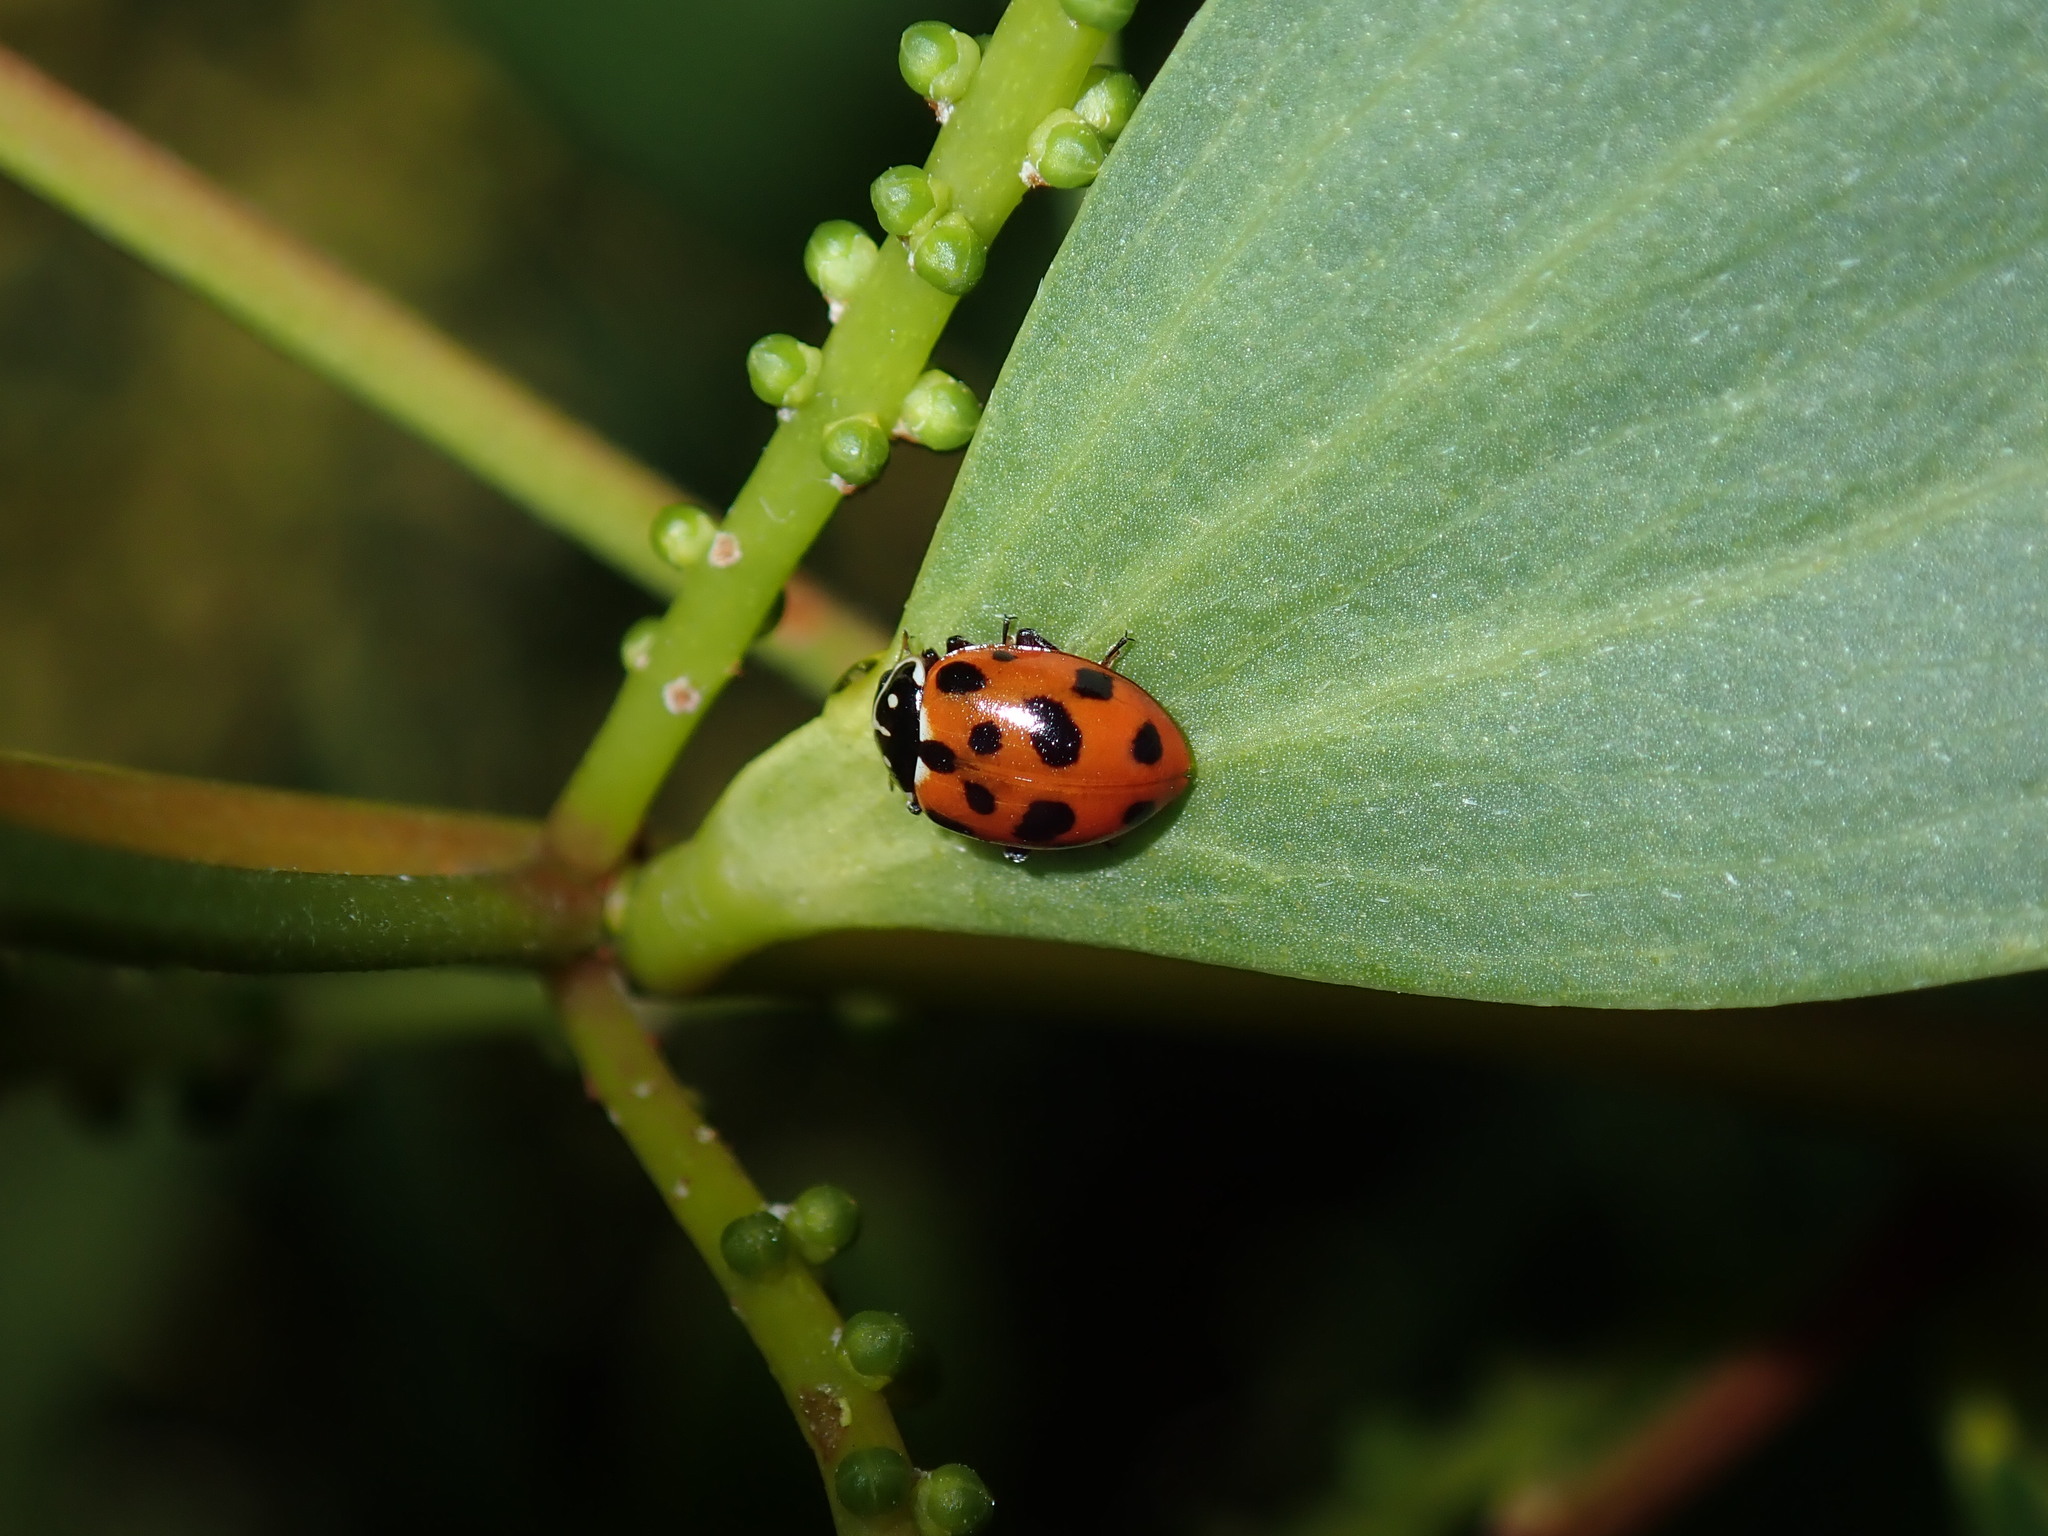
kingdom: Animalia
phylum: Arthropoda
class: Insecta
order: Coleoptera
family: Coccinellidae
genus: Hippodamia
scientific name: Hippodamia variegata
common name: Ladybird beetle
